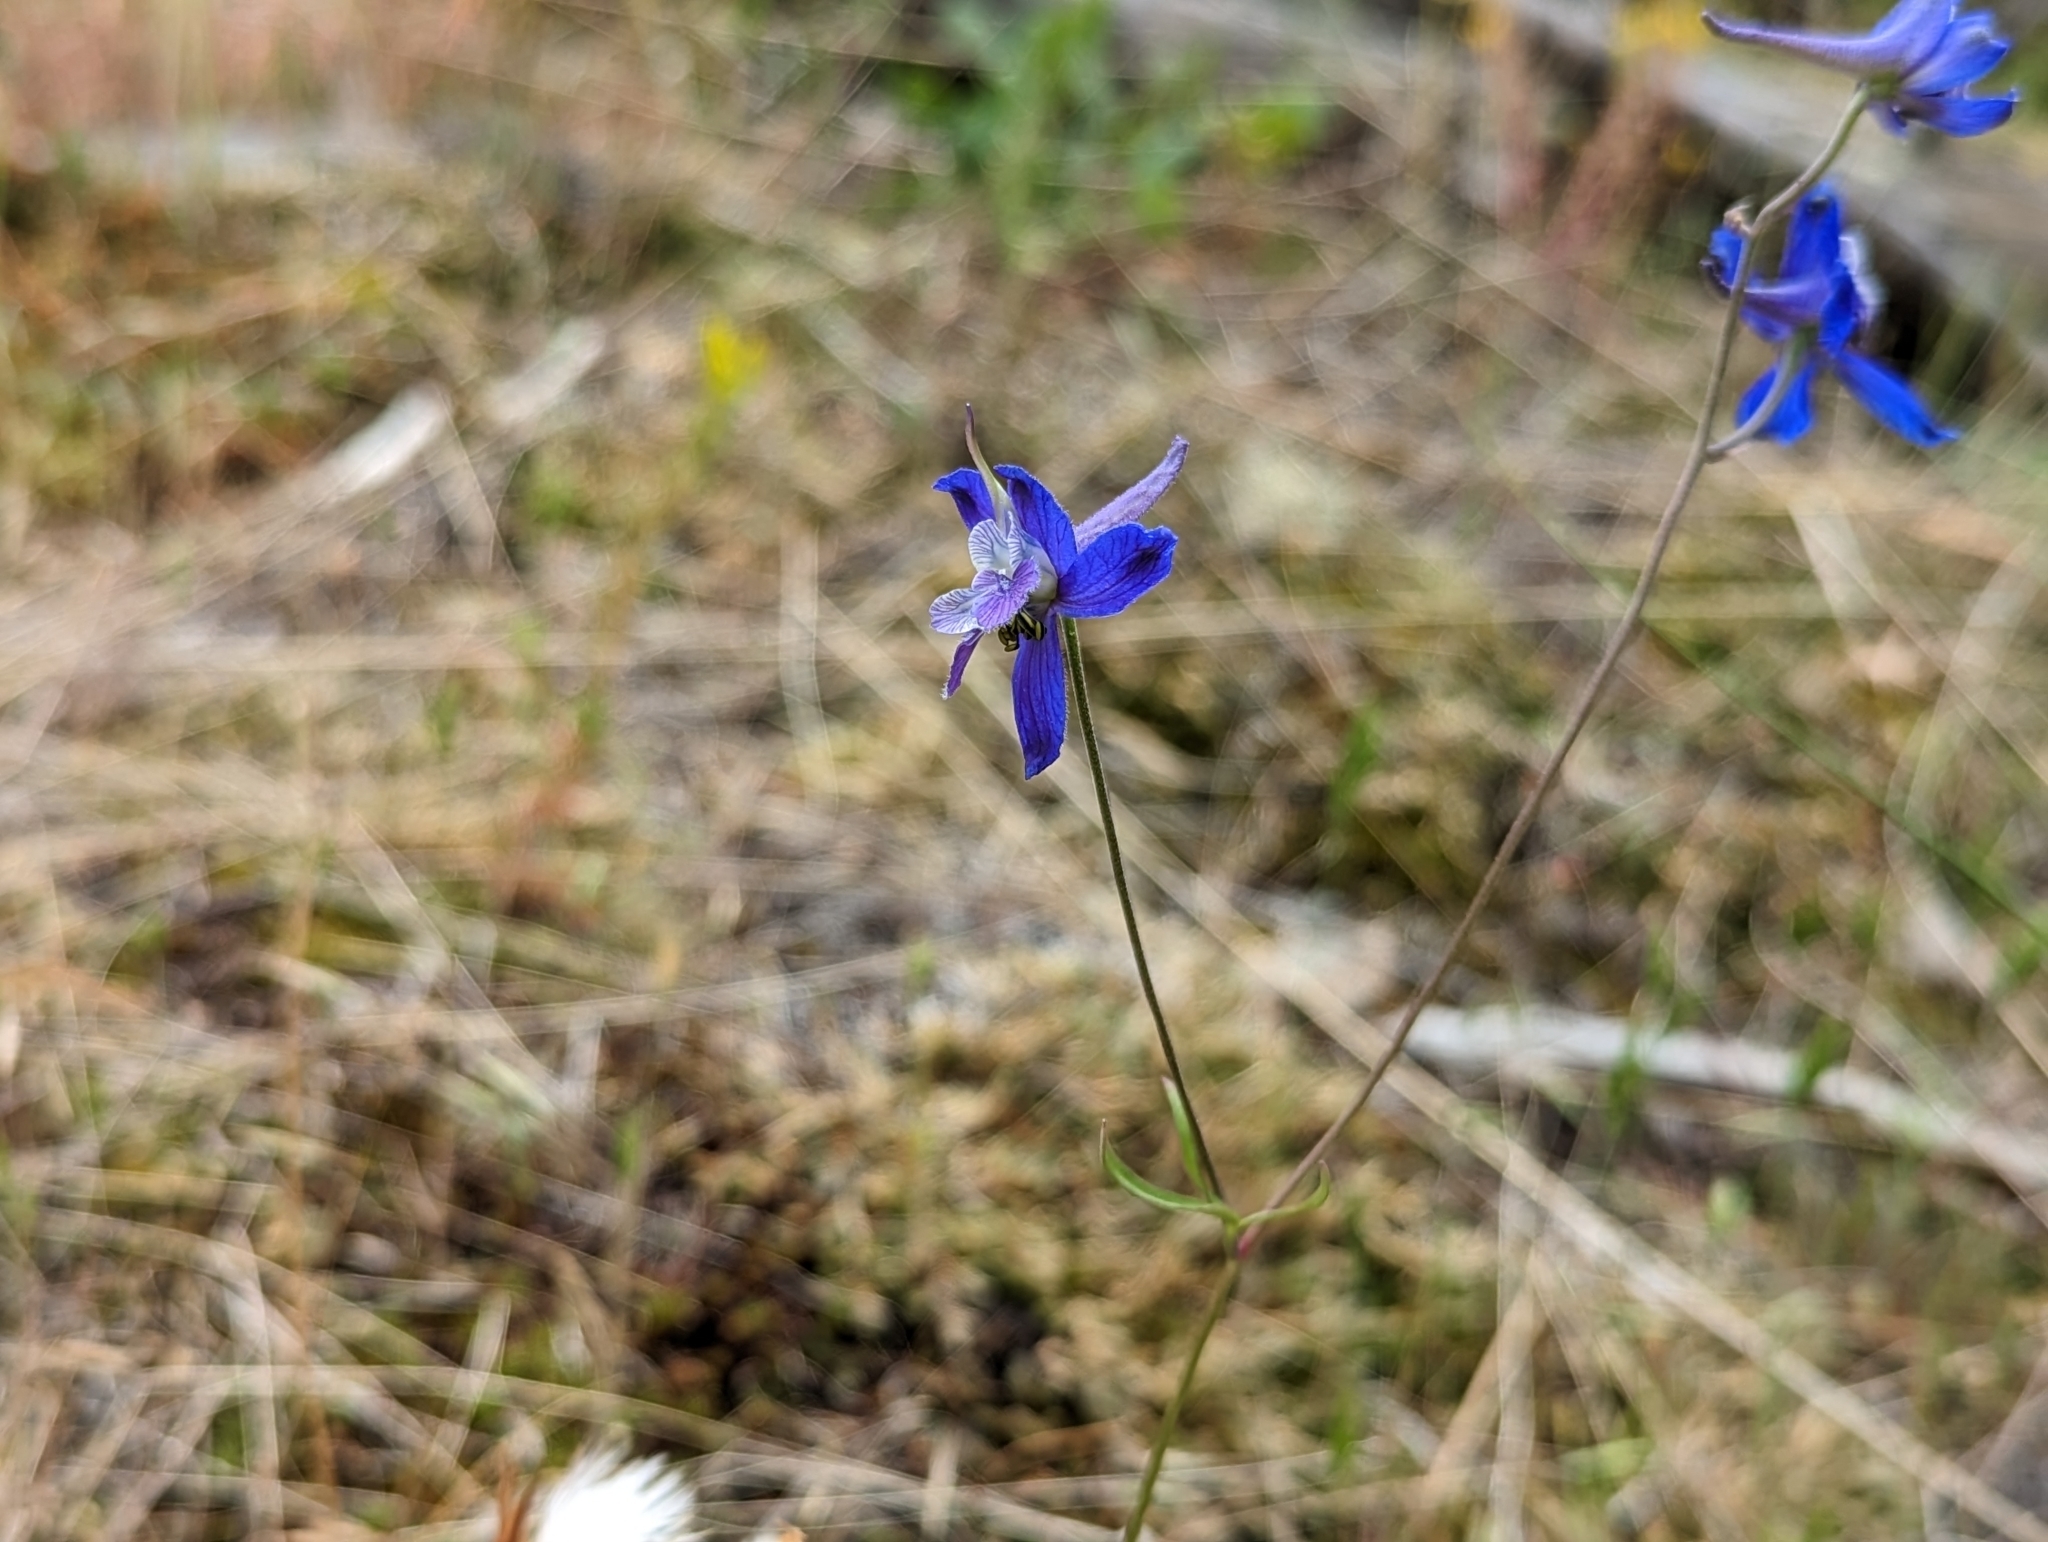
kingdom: Plantae
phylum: Tracheophyta
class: Magnoliopsida
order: Ranunculales
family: Ranunculaceae
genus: Delphinium
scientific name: Delphinium nuttallianum
